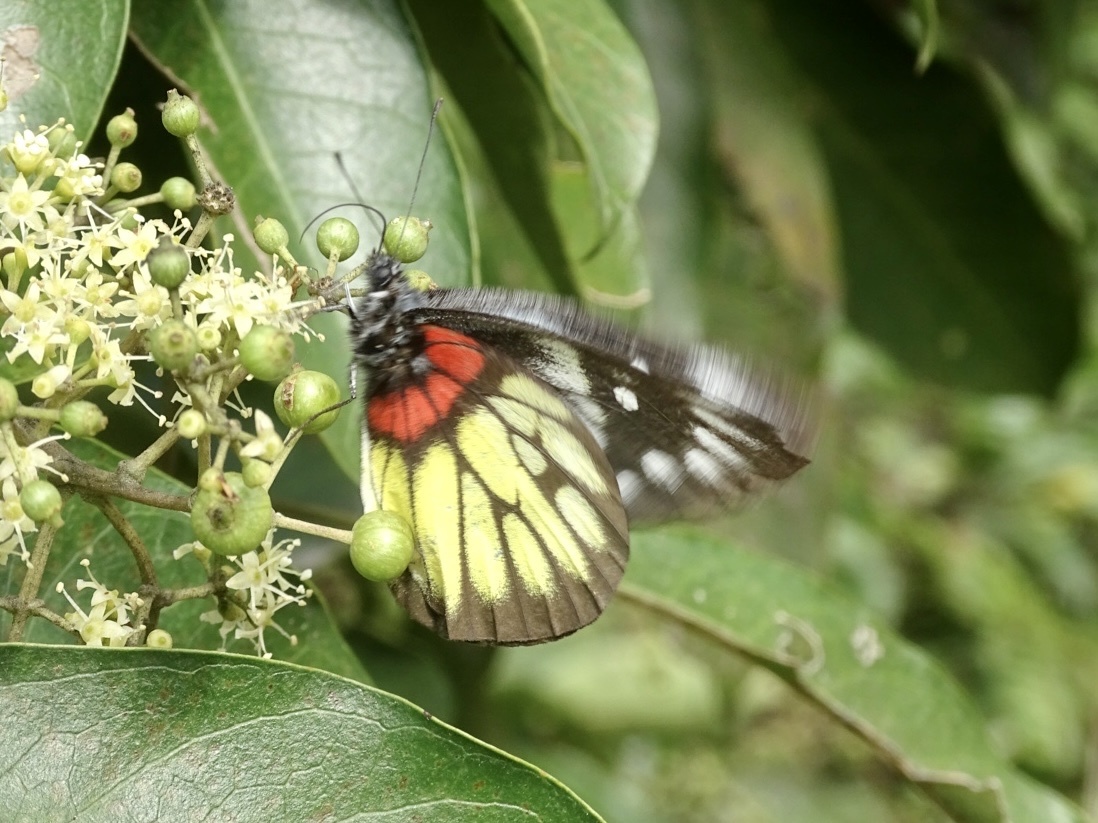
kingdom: Animalia
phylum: Arthropoda
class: Insecta
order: Lepidoptera
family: Pieridae
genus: Delias
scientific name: Delias pasithoe
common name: Red-base jezebel
